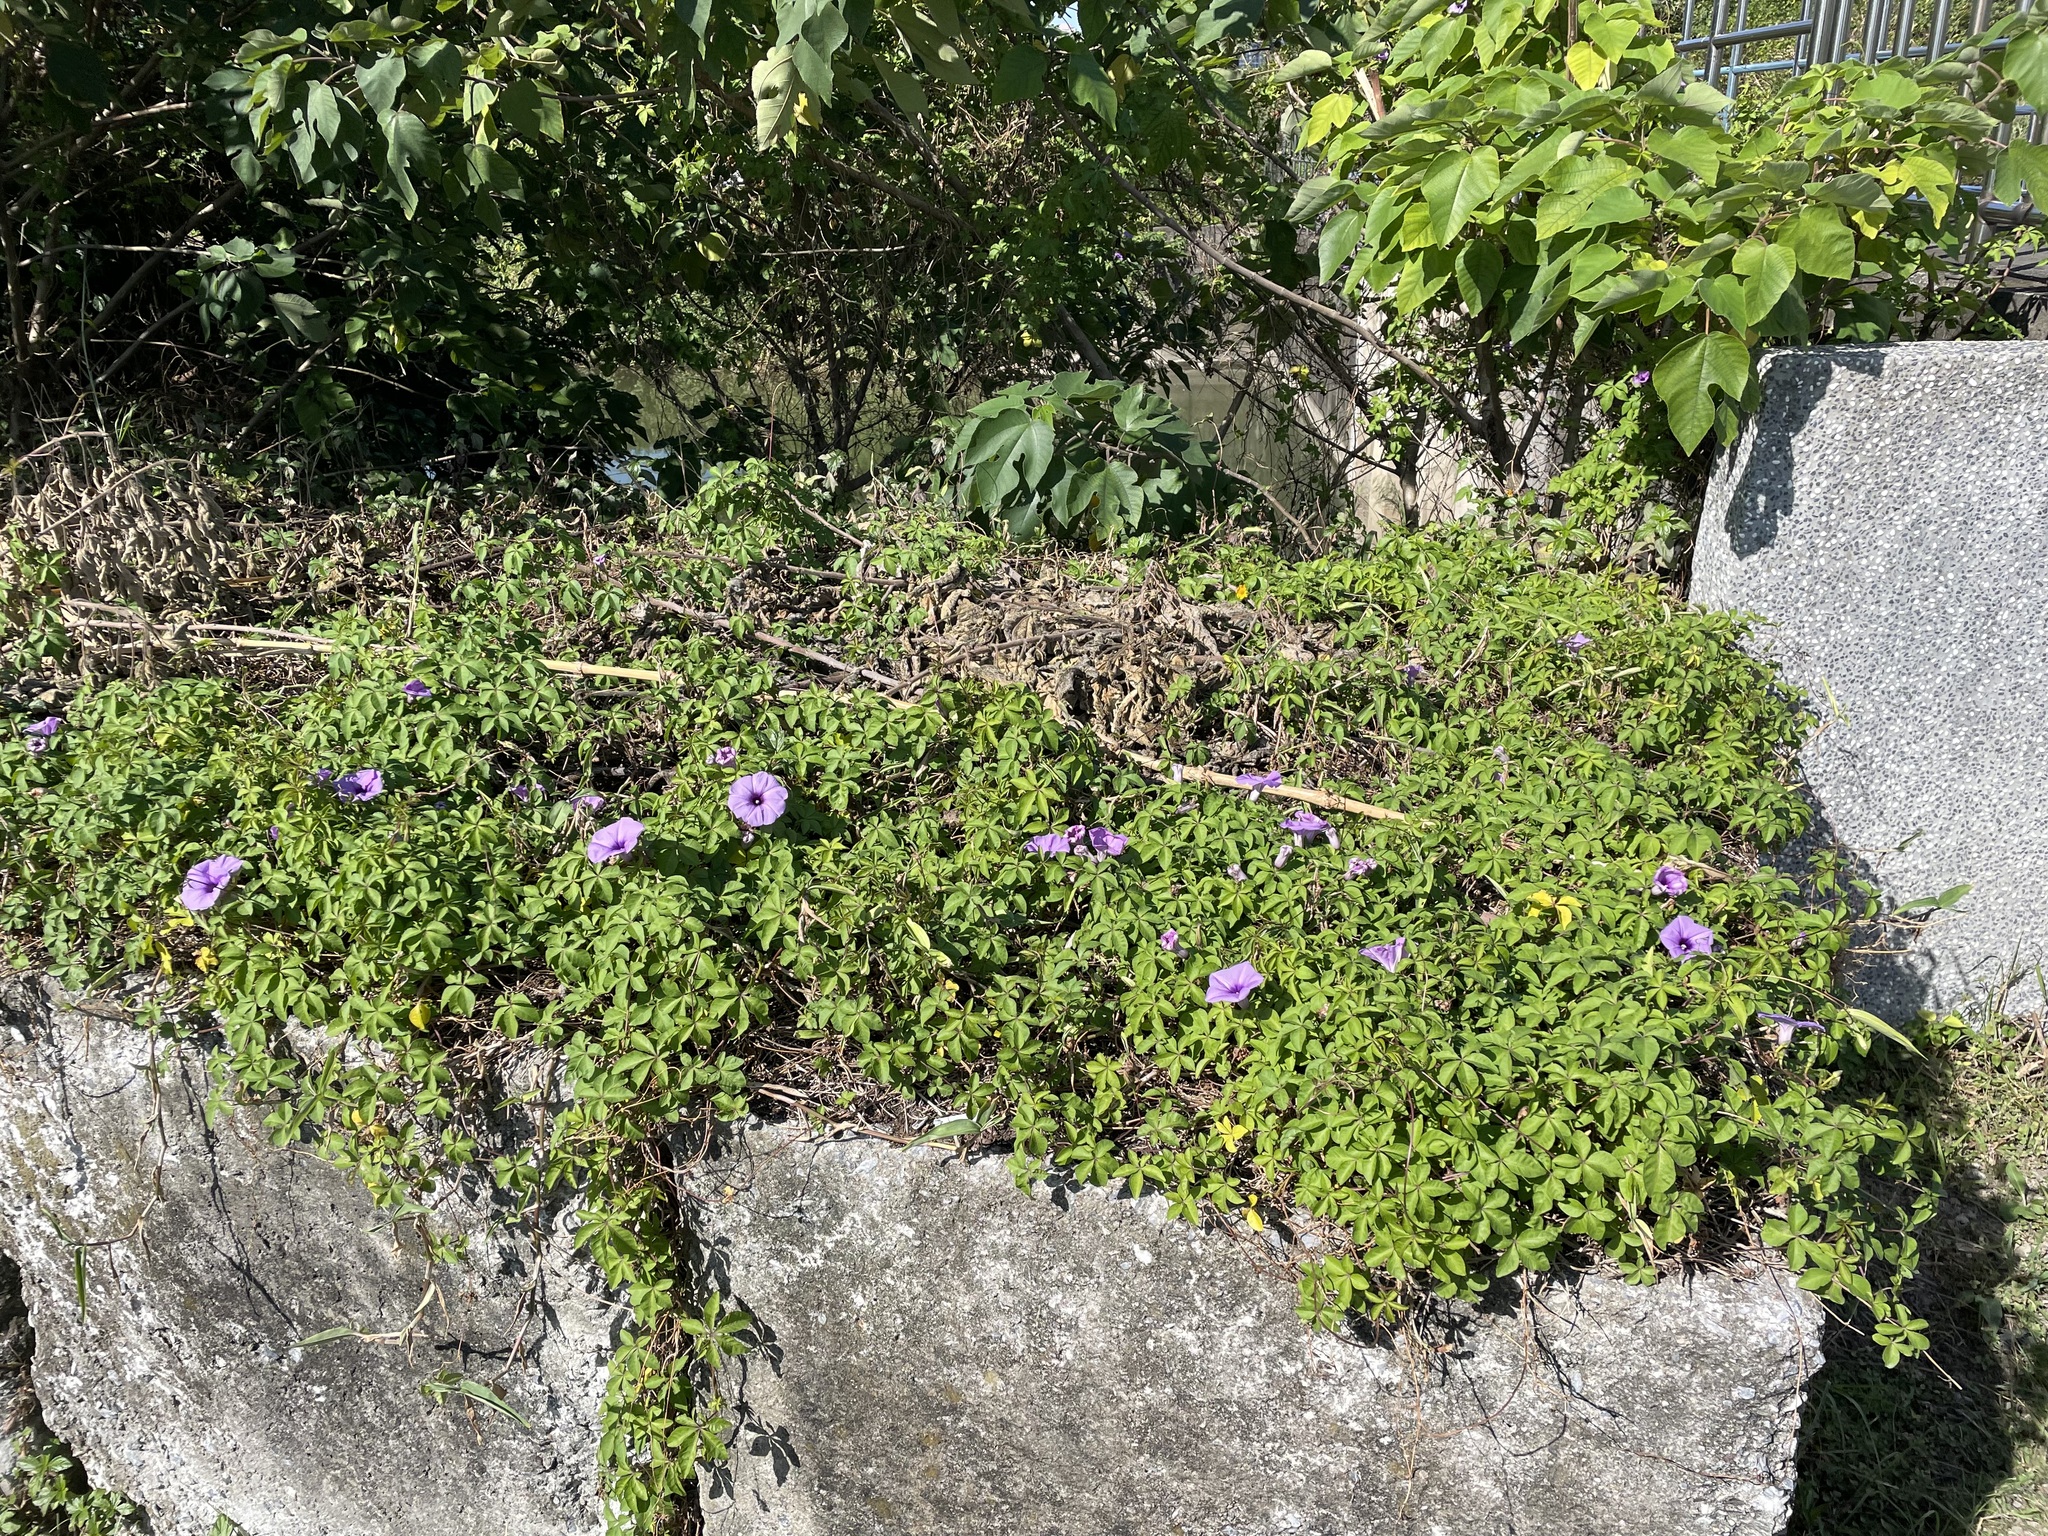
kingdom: Plantae
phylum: Tracheophyta
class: Magnoliopsida
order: Solanales
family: Convolvulaceae
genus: Ipomoea
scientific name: Ipomoea cairica
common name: Mile a minute vine
